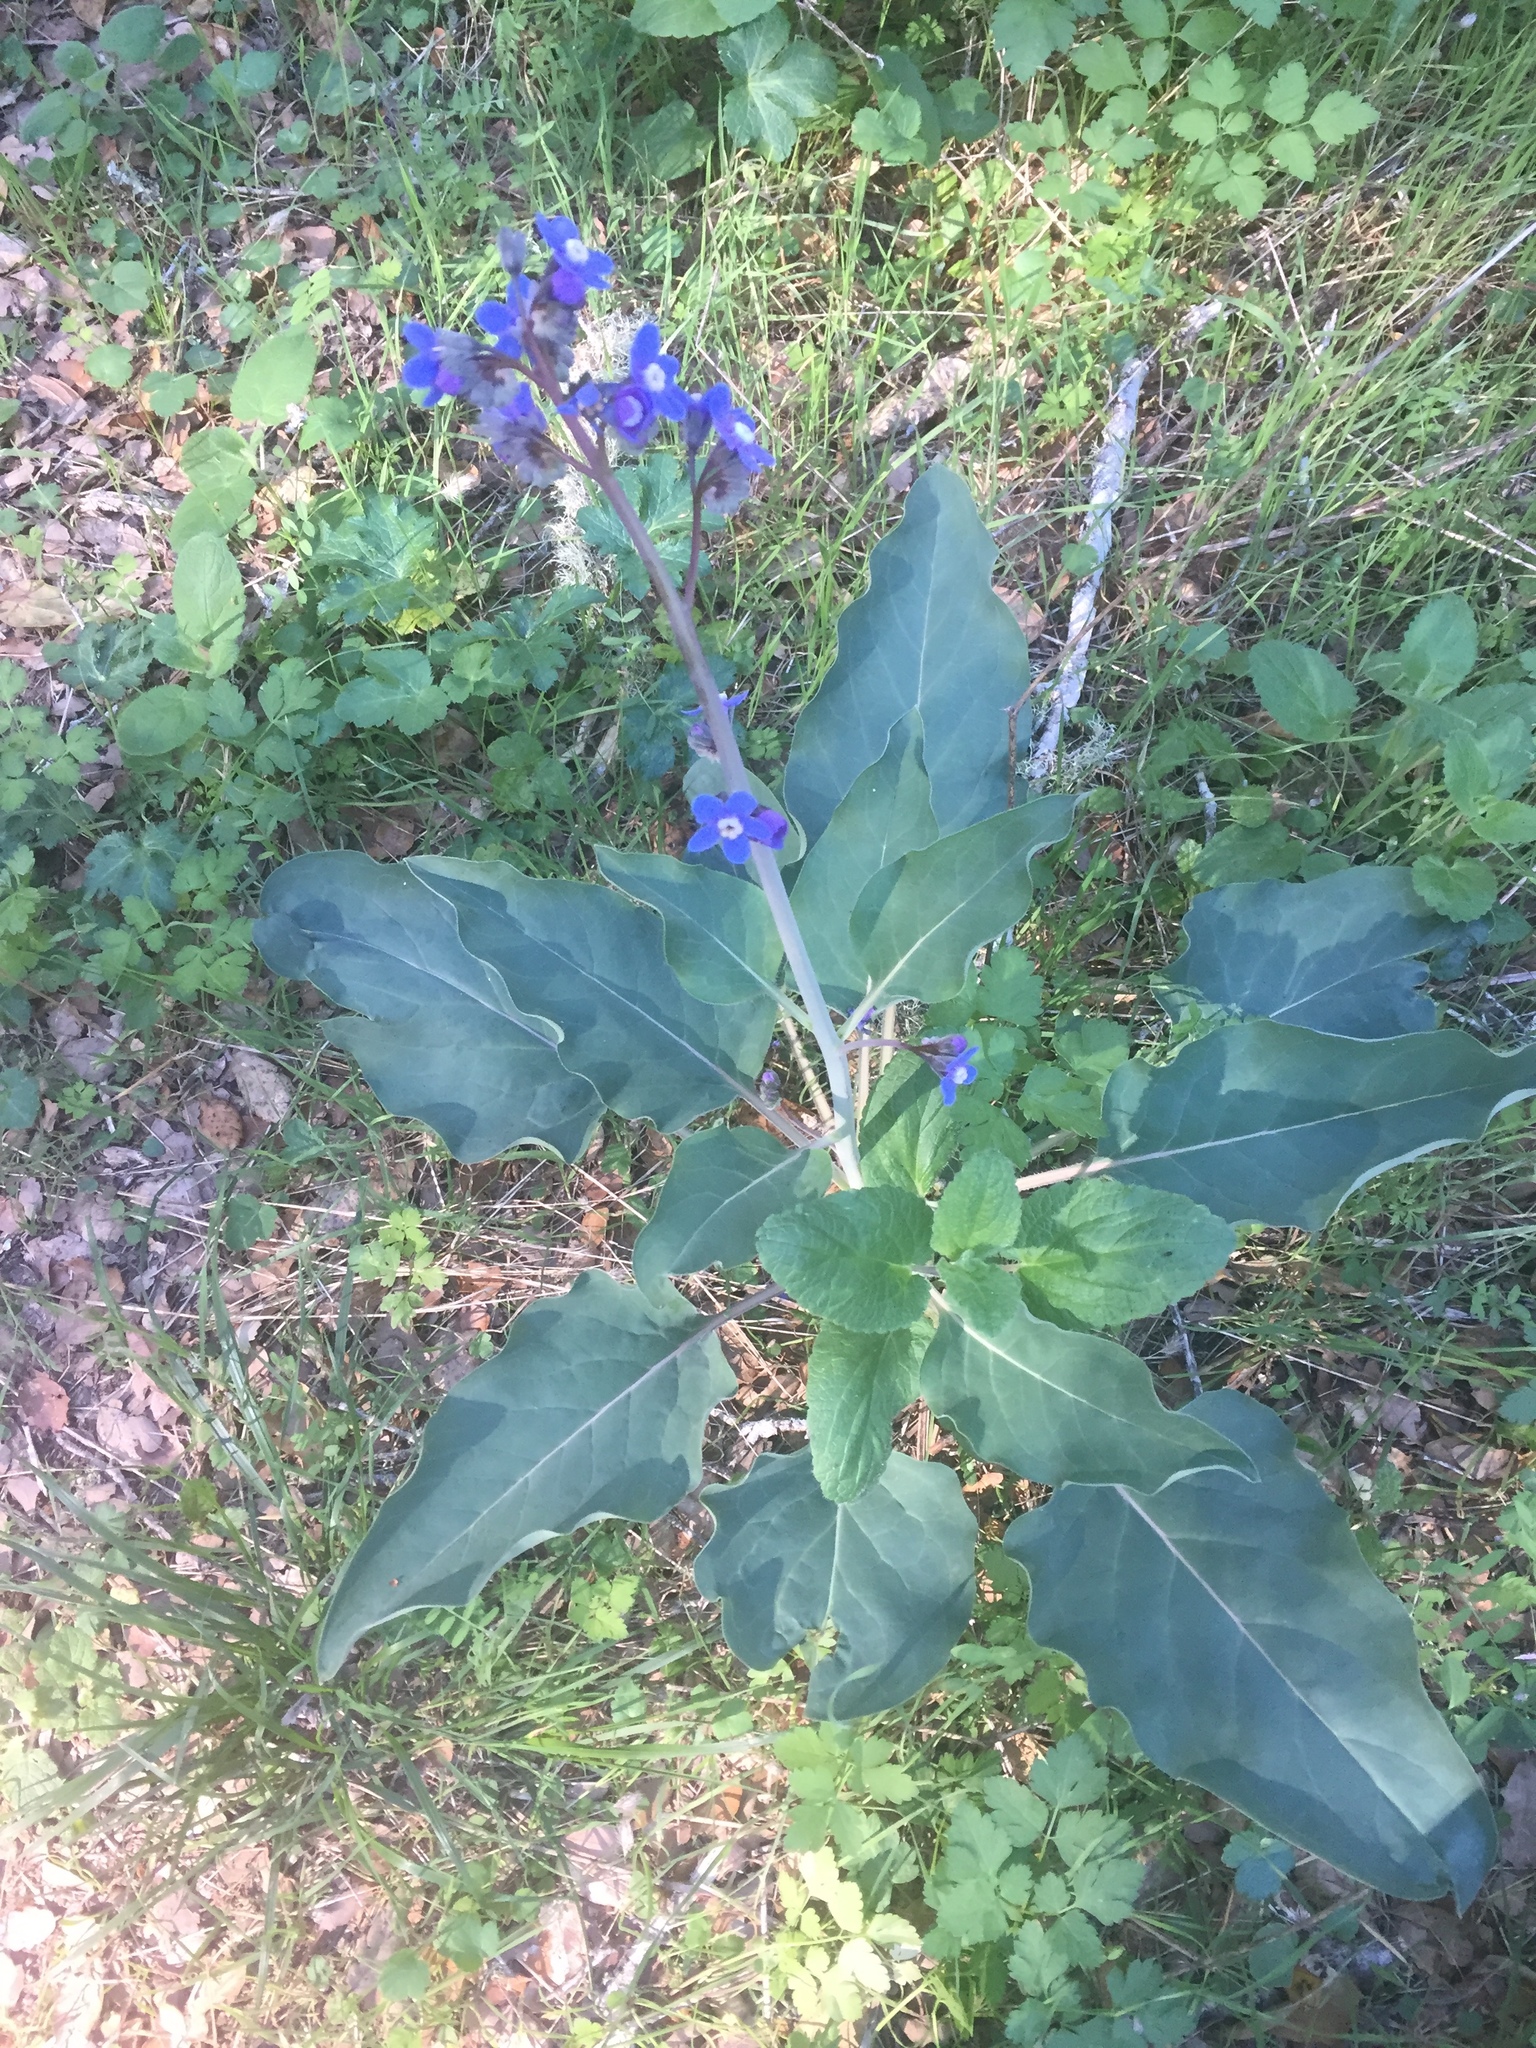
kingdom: Plantae
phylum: Tracheophyta
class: Magnoliopsida
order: Boraginales
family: Boraginaceae
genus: Adelinia
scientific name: Adelinia grande
